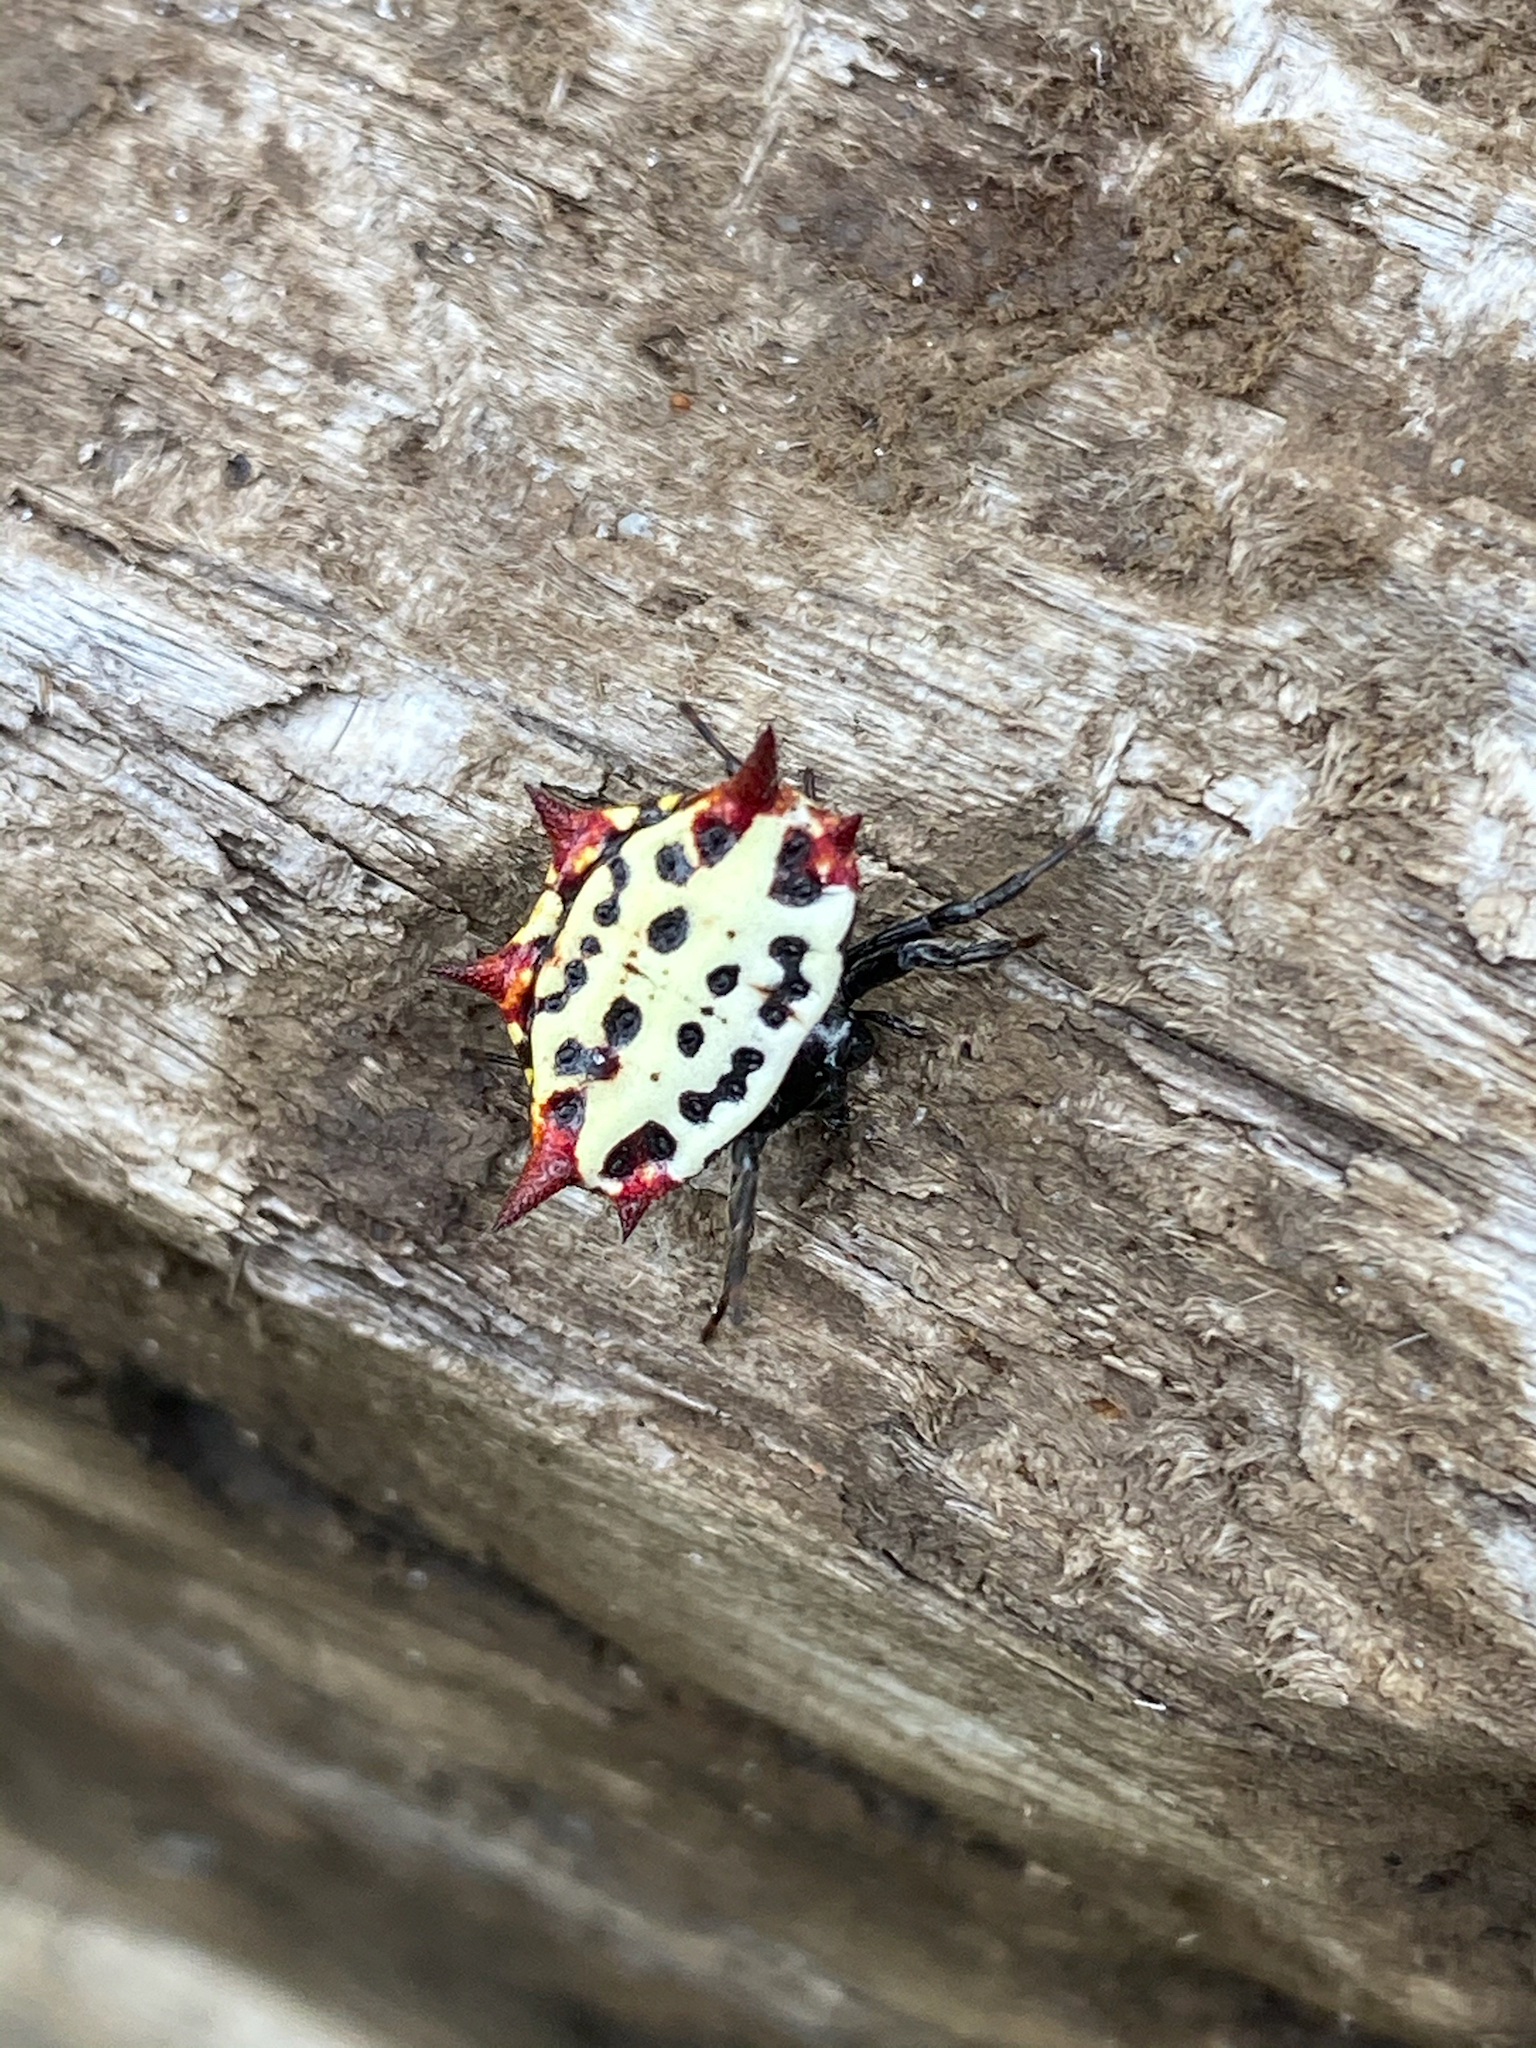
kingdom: Animalia
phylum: Arthropoda
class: Arachnida
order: Araneae
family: Araneidae
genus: Gasteracantha
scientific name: Gasteracantha cancriformis
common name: Orb weavers
